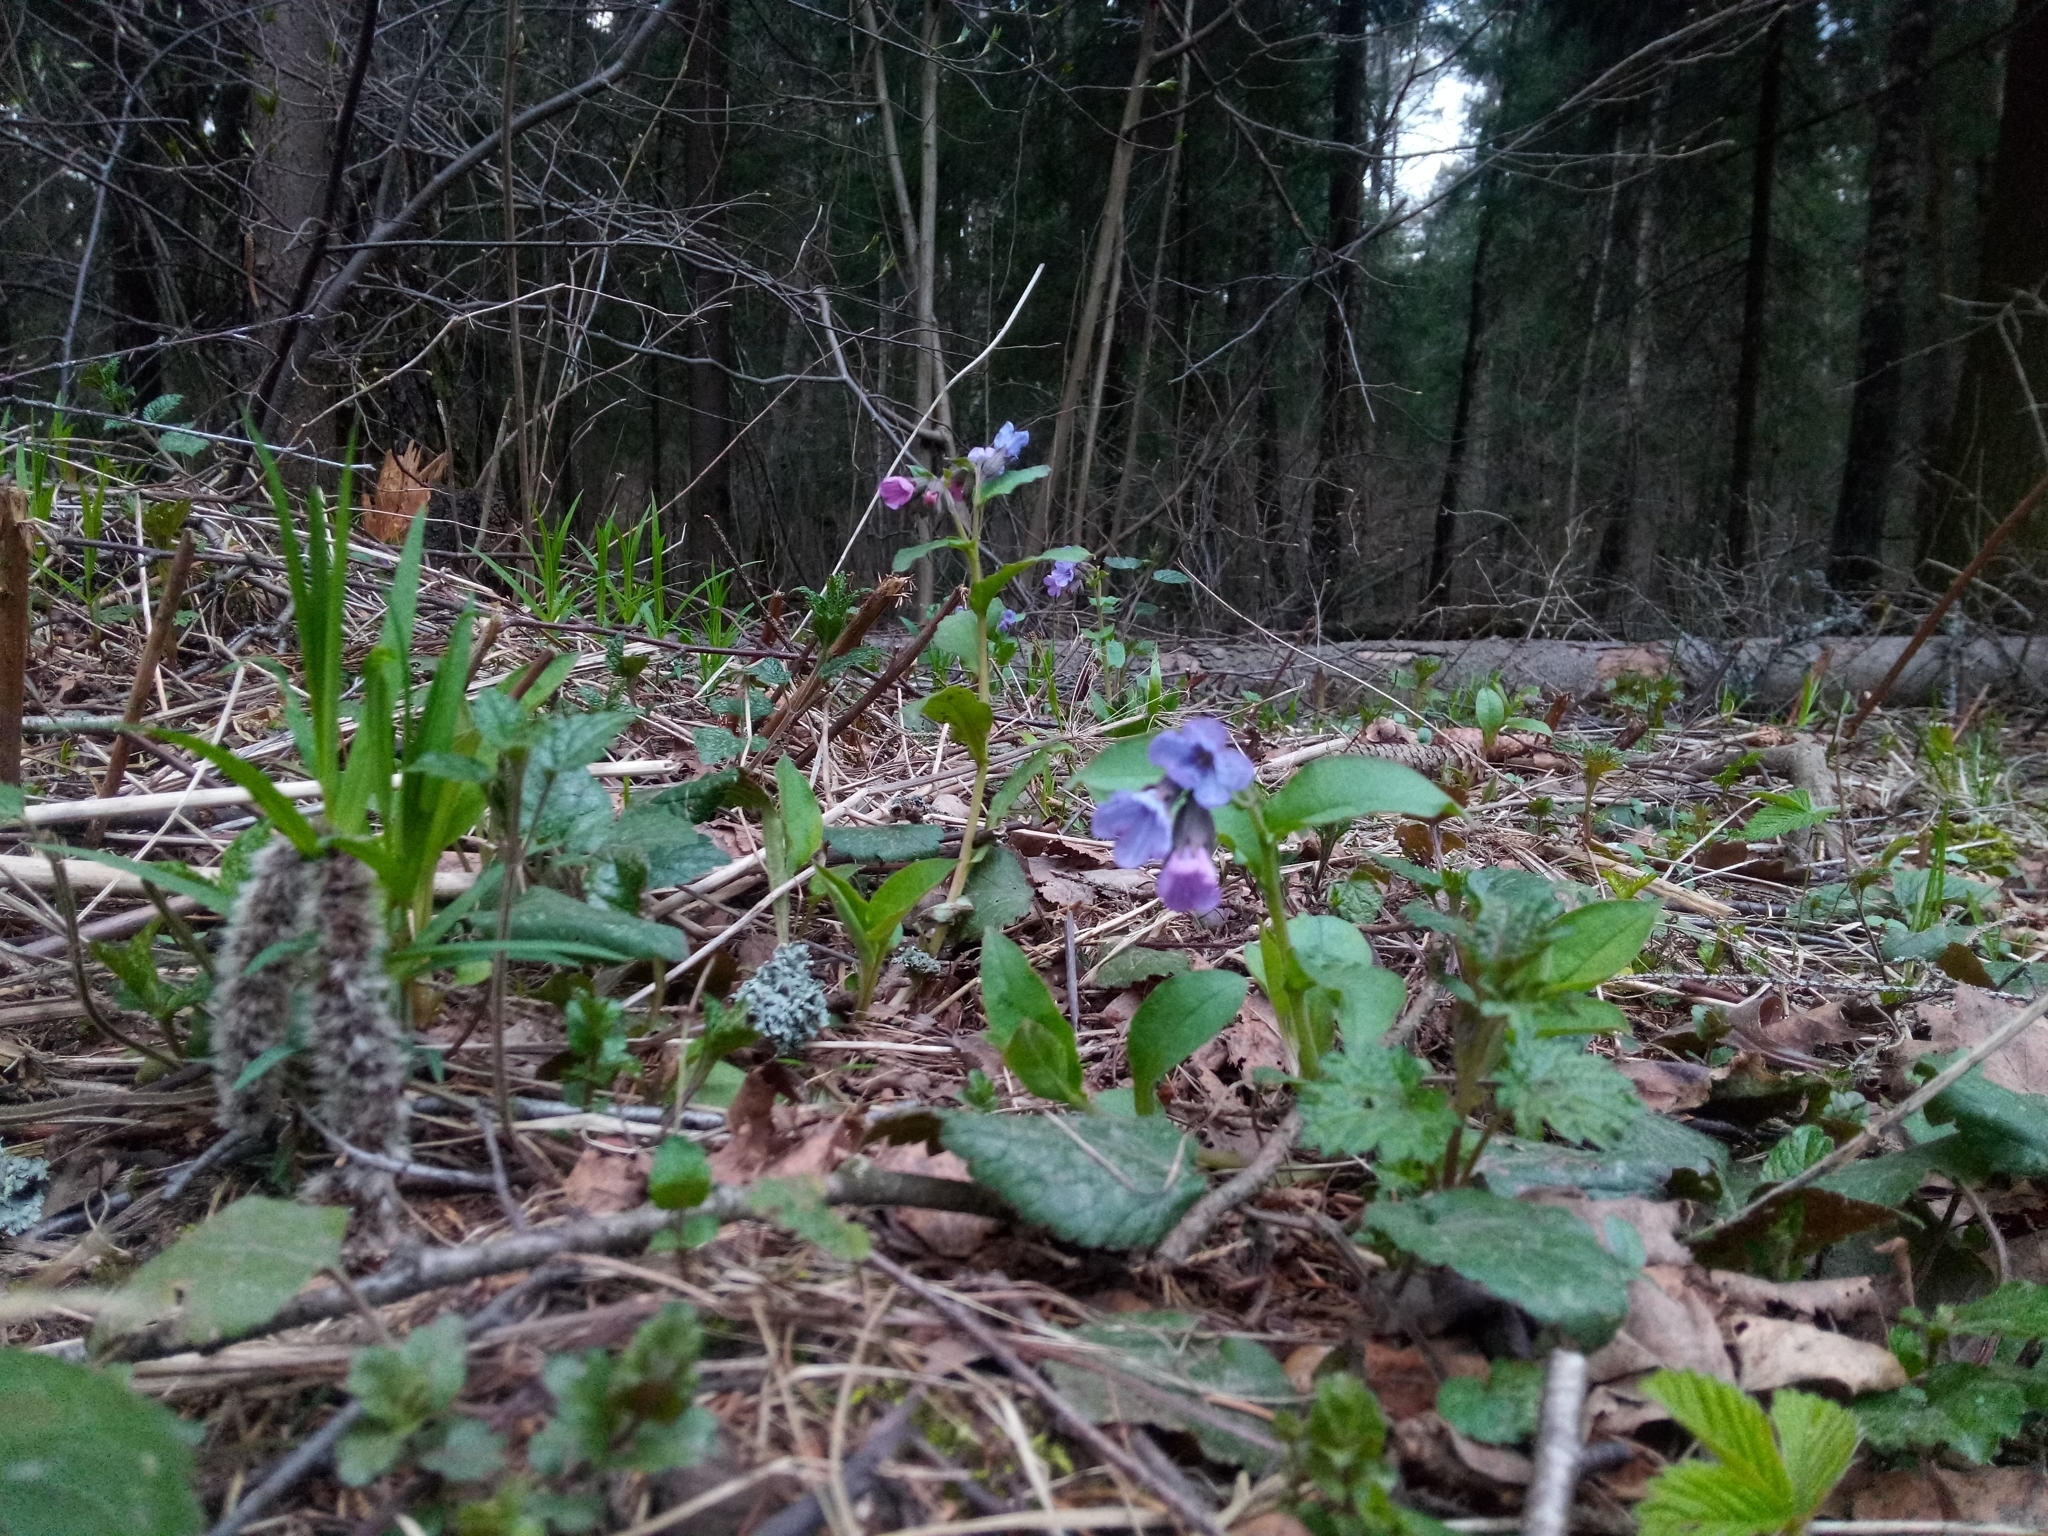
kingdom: Plantae
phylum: Tracheophyta
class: Magnoliopsida
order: Boraginales
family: Boraginaceae
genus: Pulmonaria
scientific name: Pulmonaria obscura
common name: Suffolk lungwort
